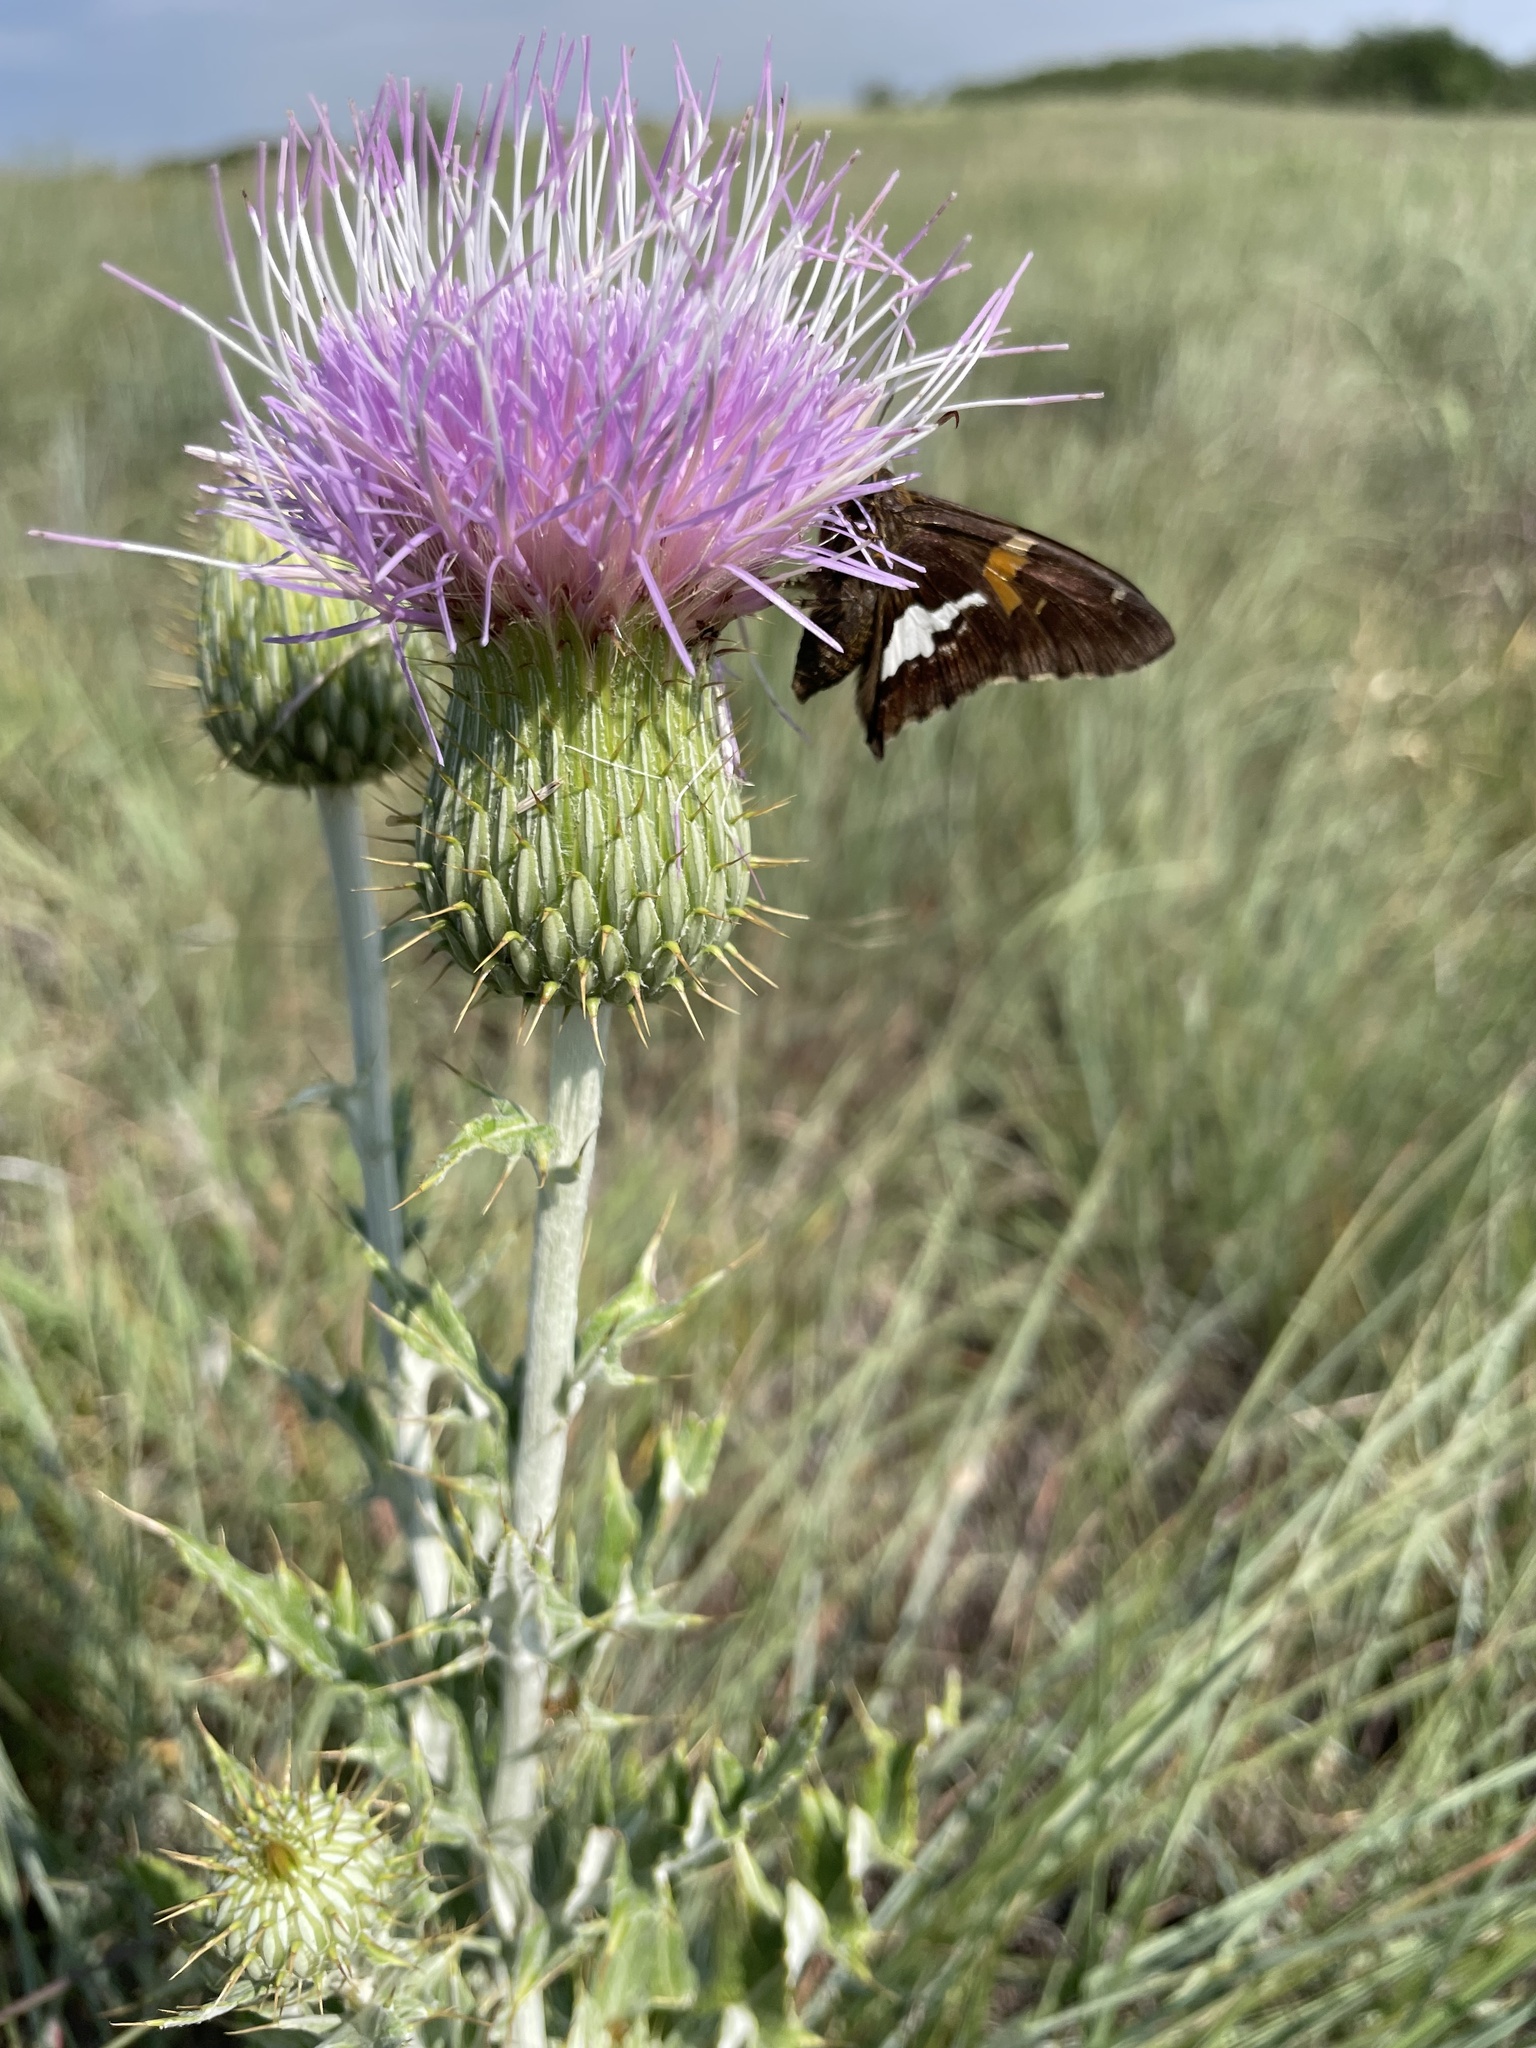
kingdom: Animalia
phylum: Arthropoda
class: Insecta
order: Lepidoptera
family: Hesperiidae
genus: Epargyreus
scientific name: Epargyreus clarus
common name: Silver-spotted skipper
